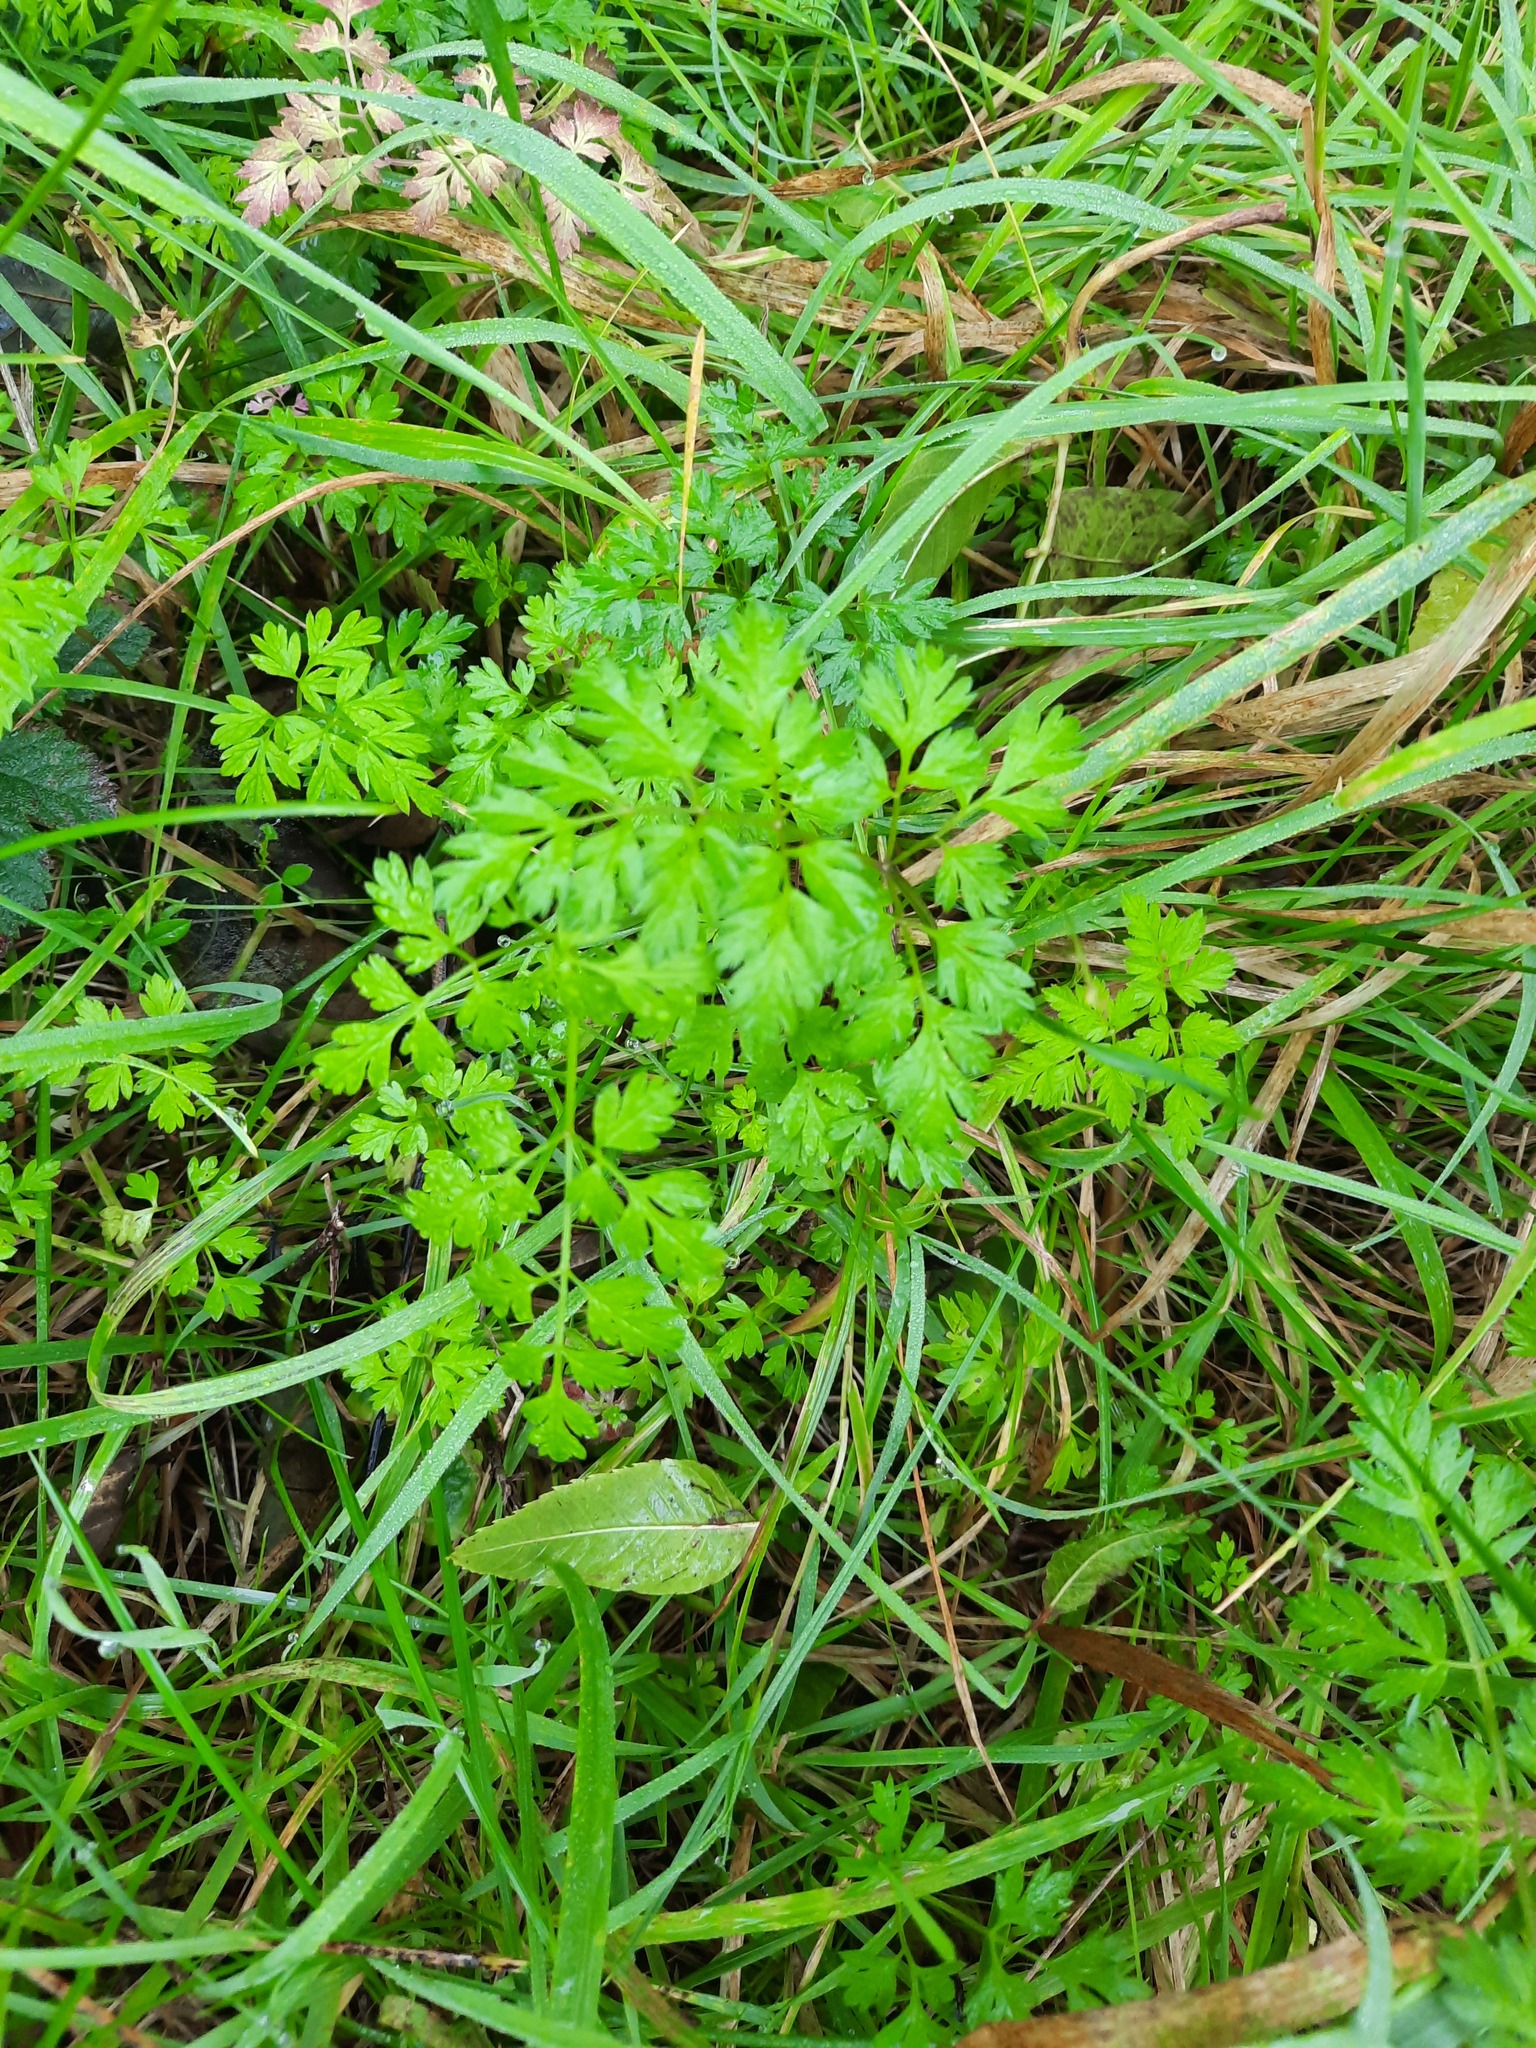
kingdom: Plantae
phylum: Tracheophyta
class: Magnoliopsida
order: Apiales
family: Apiaceae
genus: Anthriscus
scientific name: Anthriscus sylvestris
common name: Cow parsley
